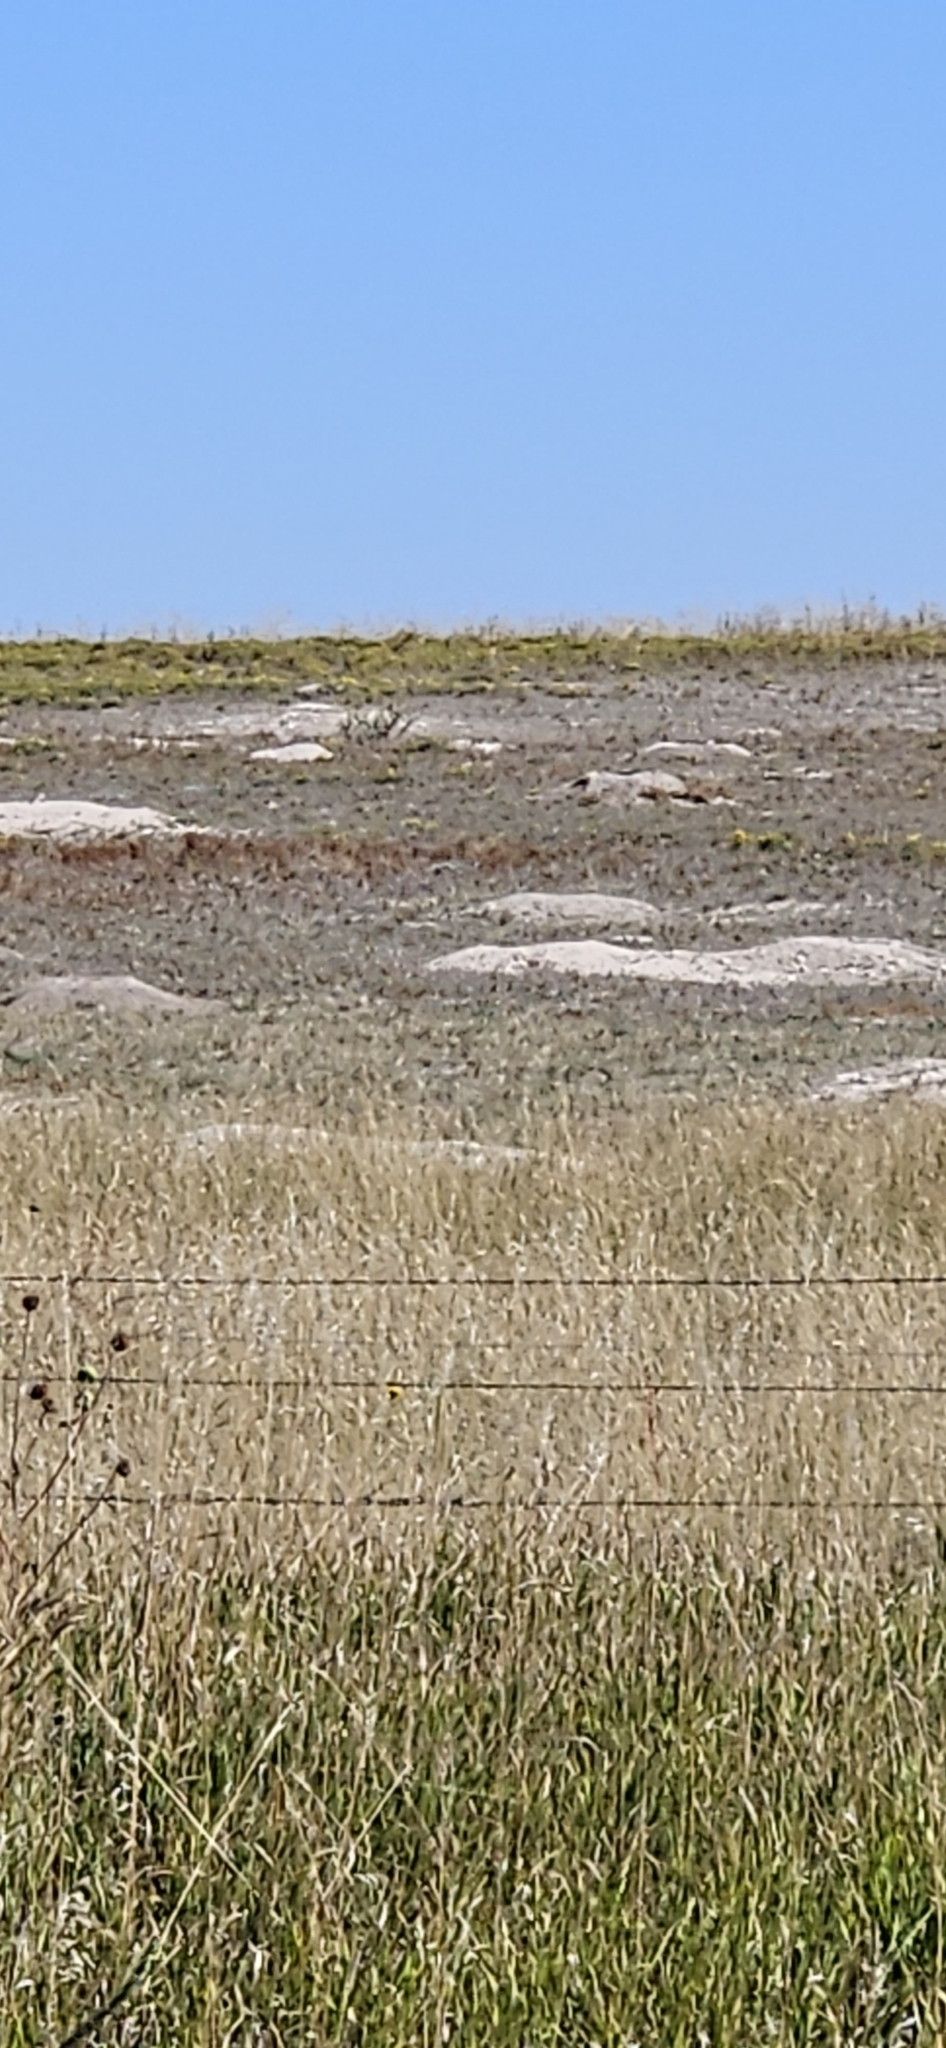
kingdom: Animalia
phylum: Chordata
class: Mammalia
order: Rodentia
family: Sciuridae
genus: Cynomys
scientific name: Cynomys ludovicianus
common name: Black-tailed prairie dog
